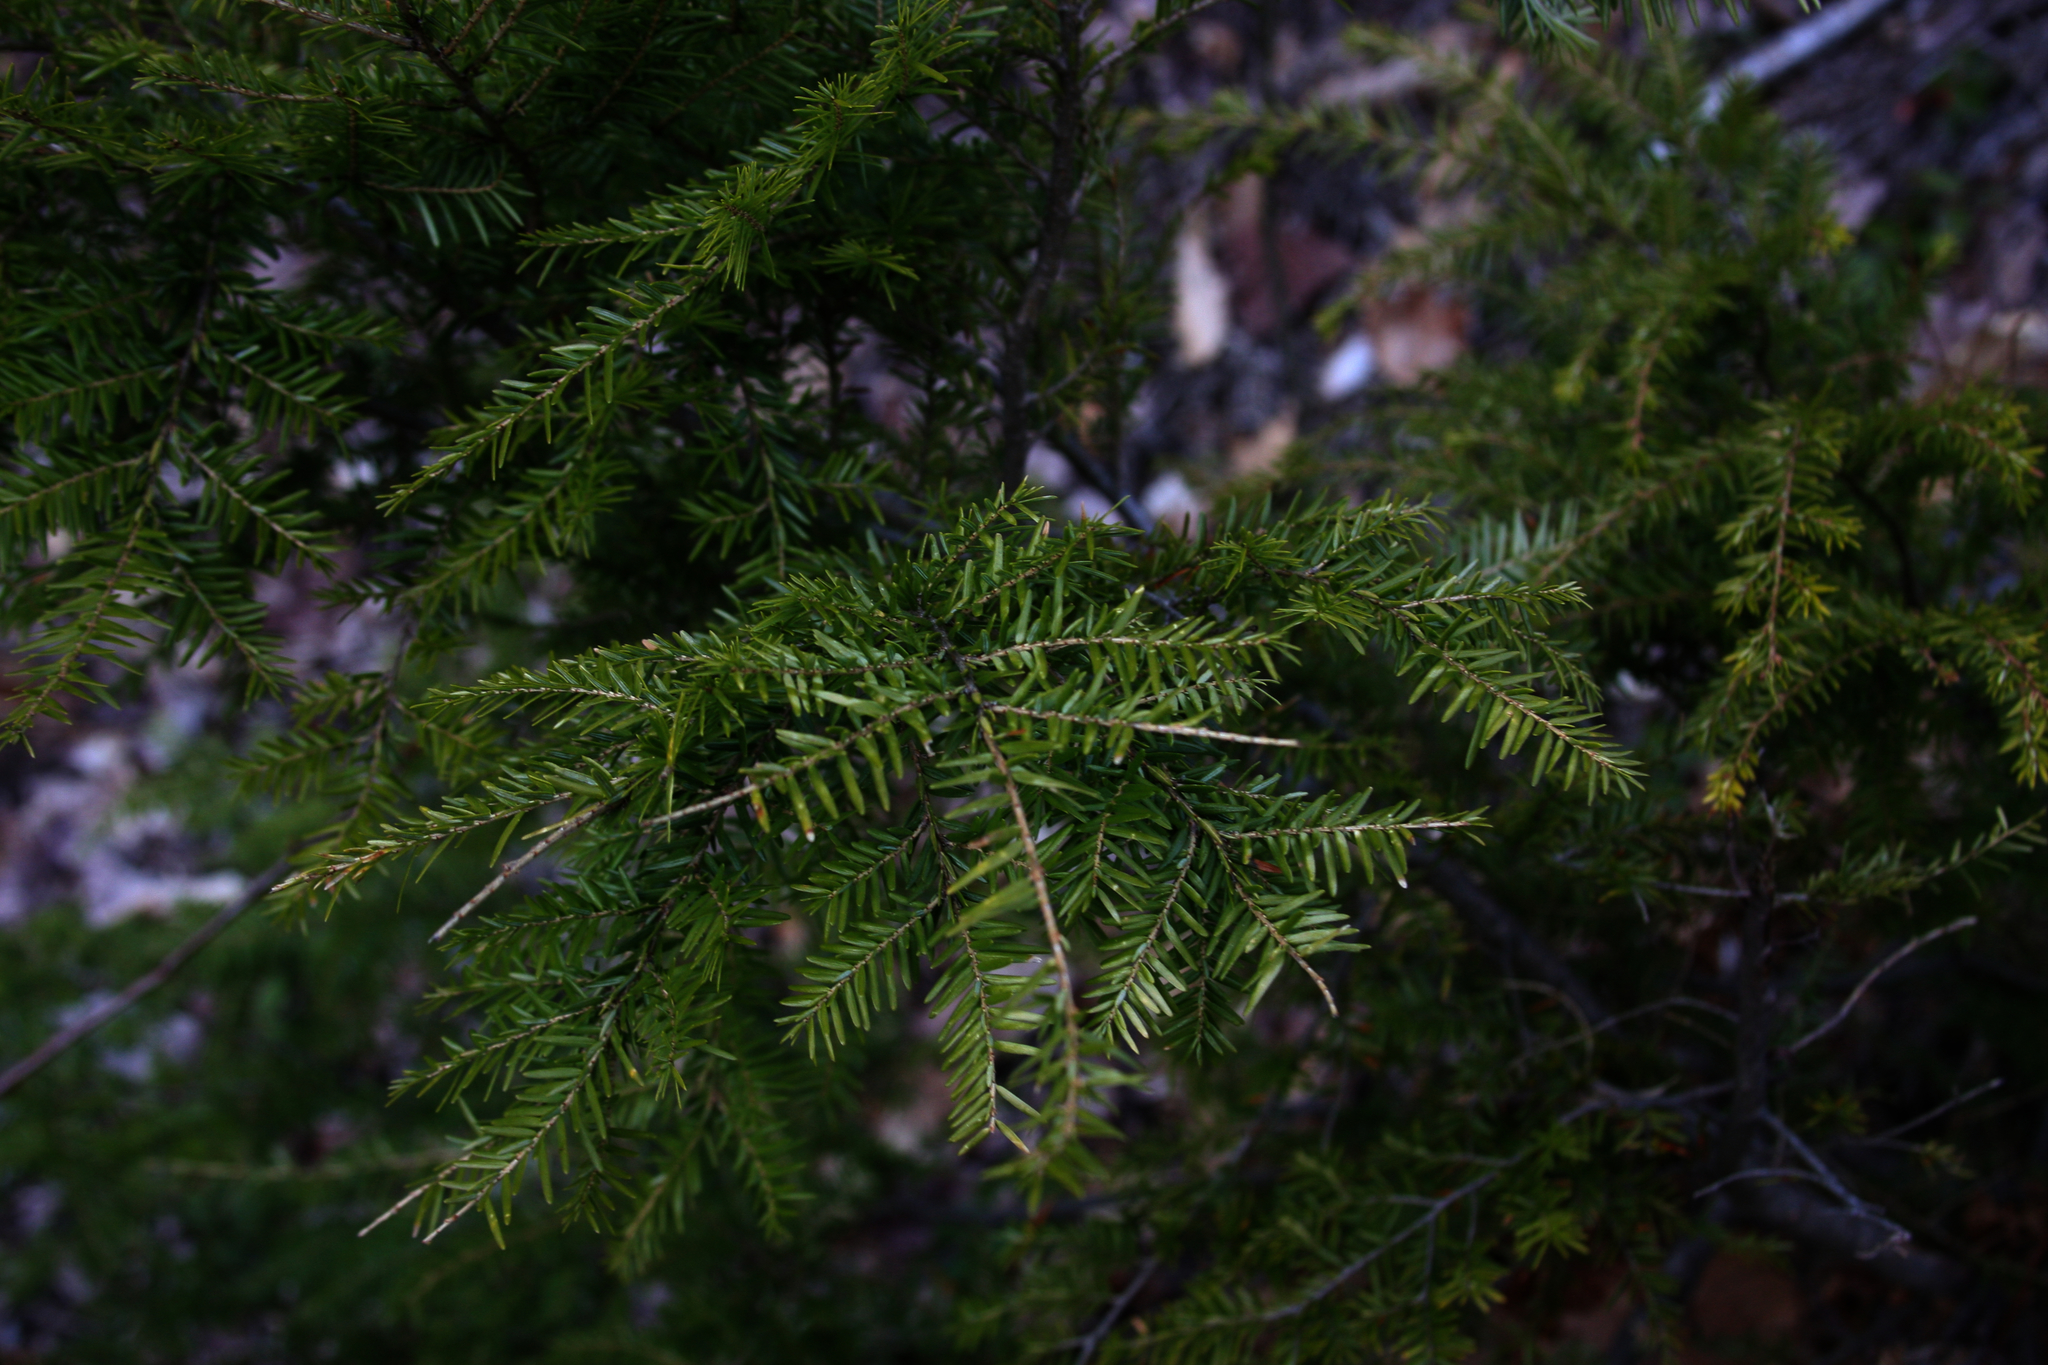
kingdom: Plantae
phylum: Tracheophyta
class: Pinopsida
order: Pinales
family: Pinaceae
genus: Tsuga
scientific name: Tsuga canadensis
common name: Eastern hemlock
